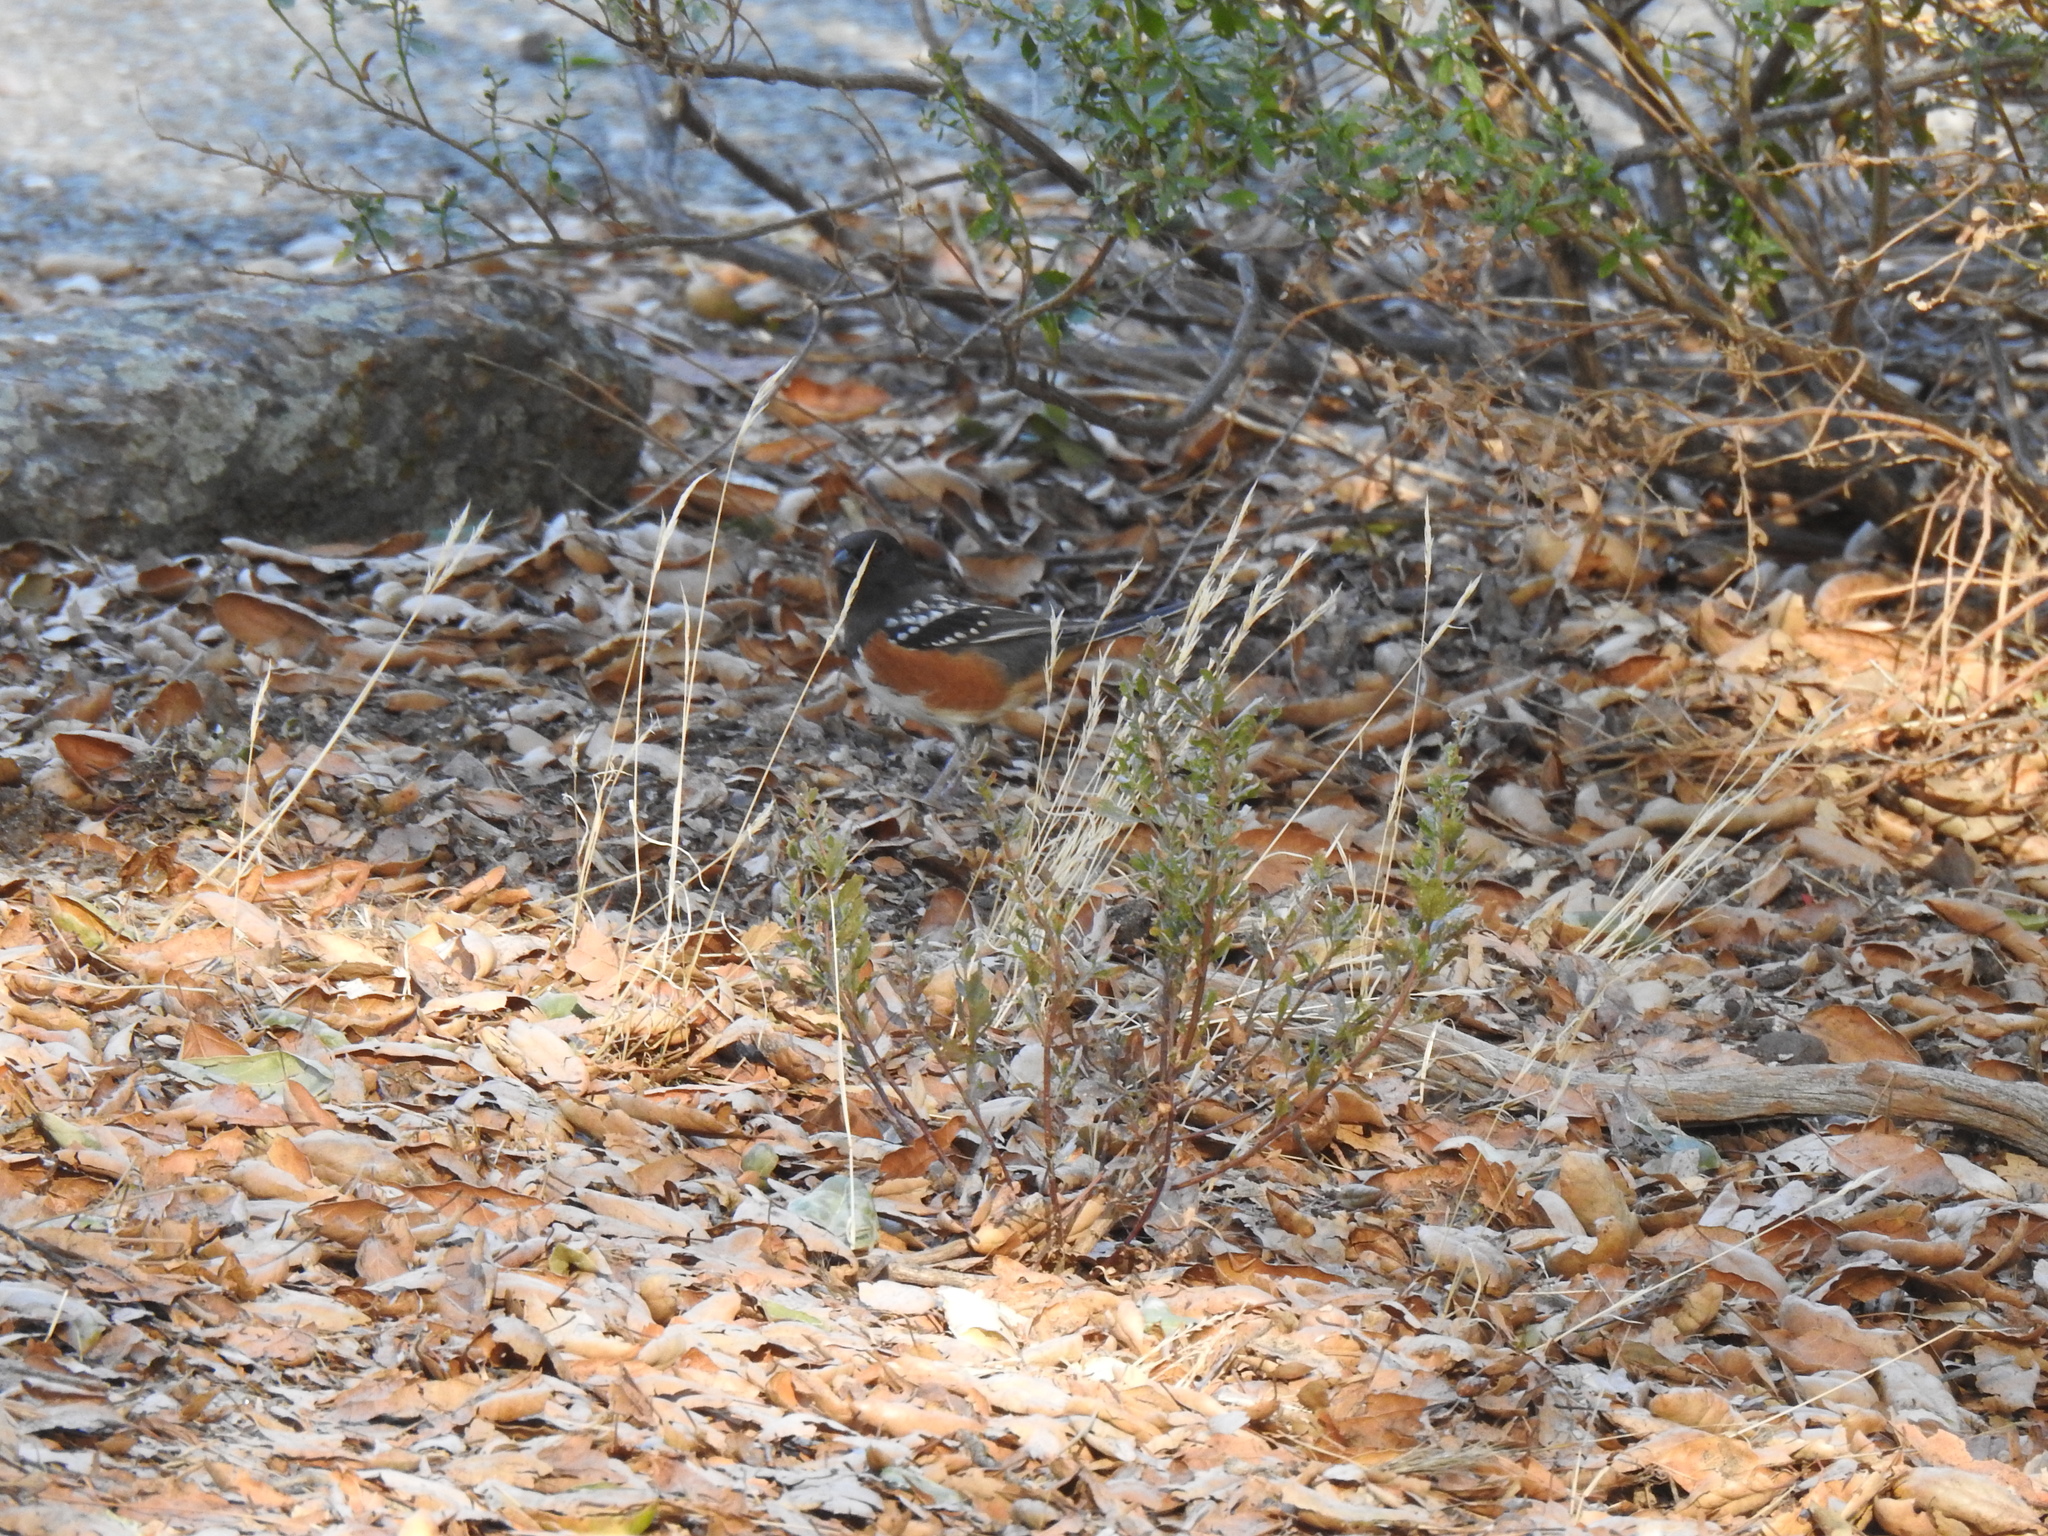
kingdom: Animalia
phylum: Chordata
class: Aves
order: Passeriformes
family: Passerellidae
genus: Pipilo
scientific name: Pipilo maculatus
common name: Spotted towhee
